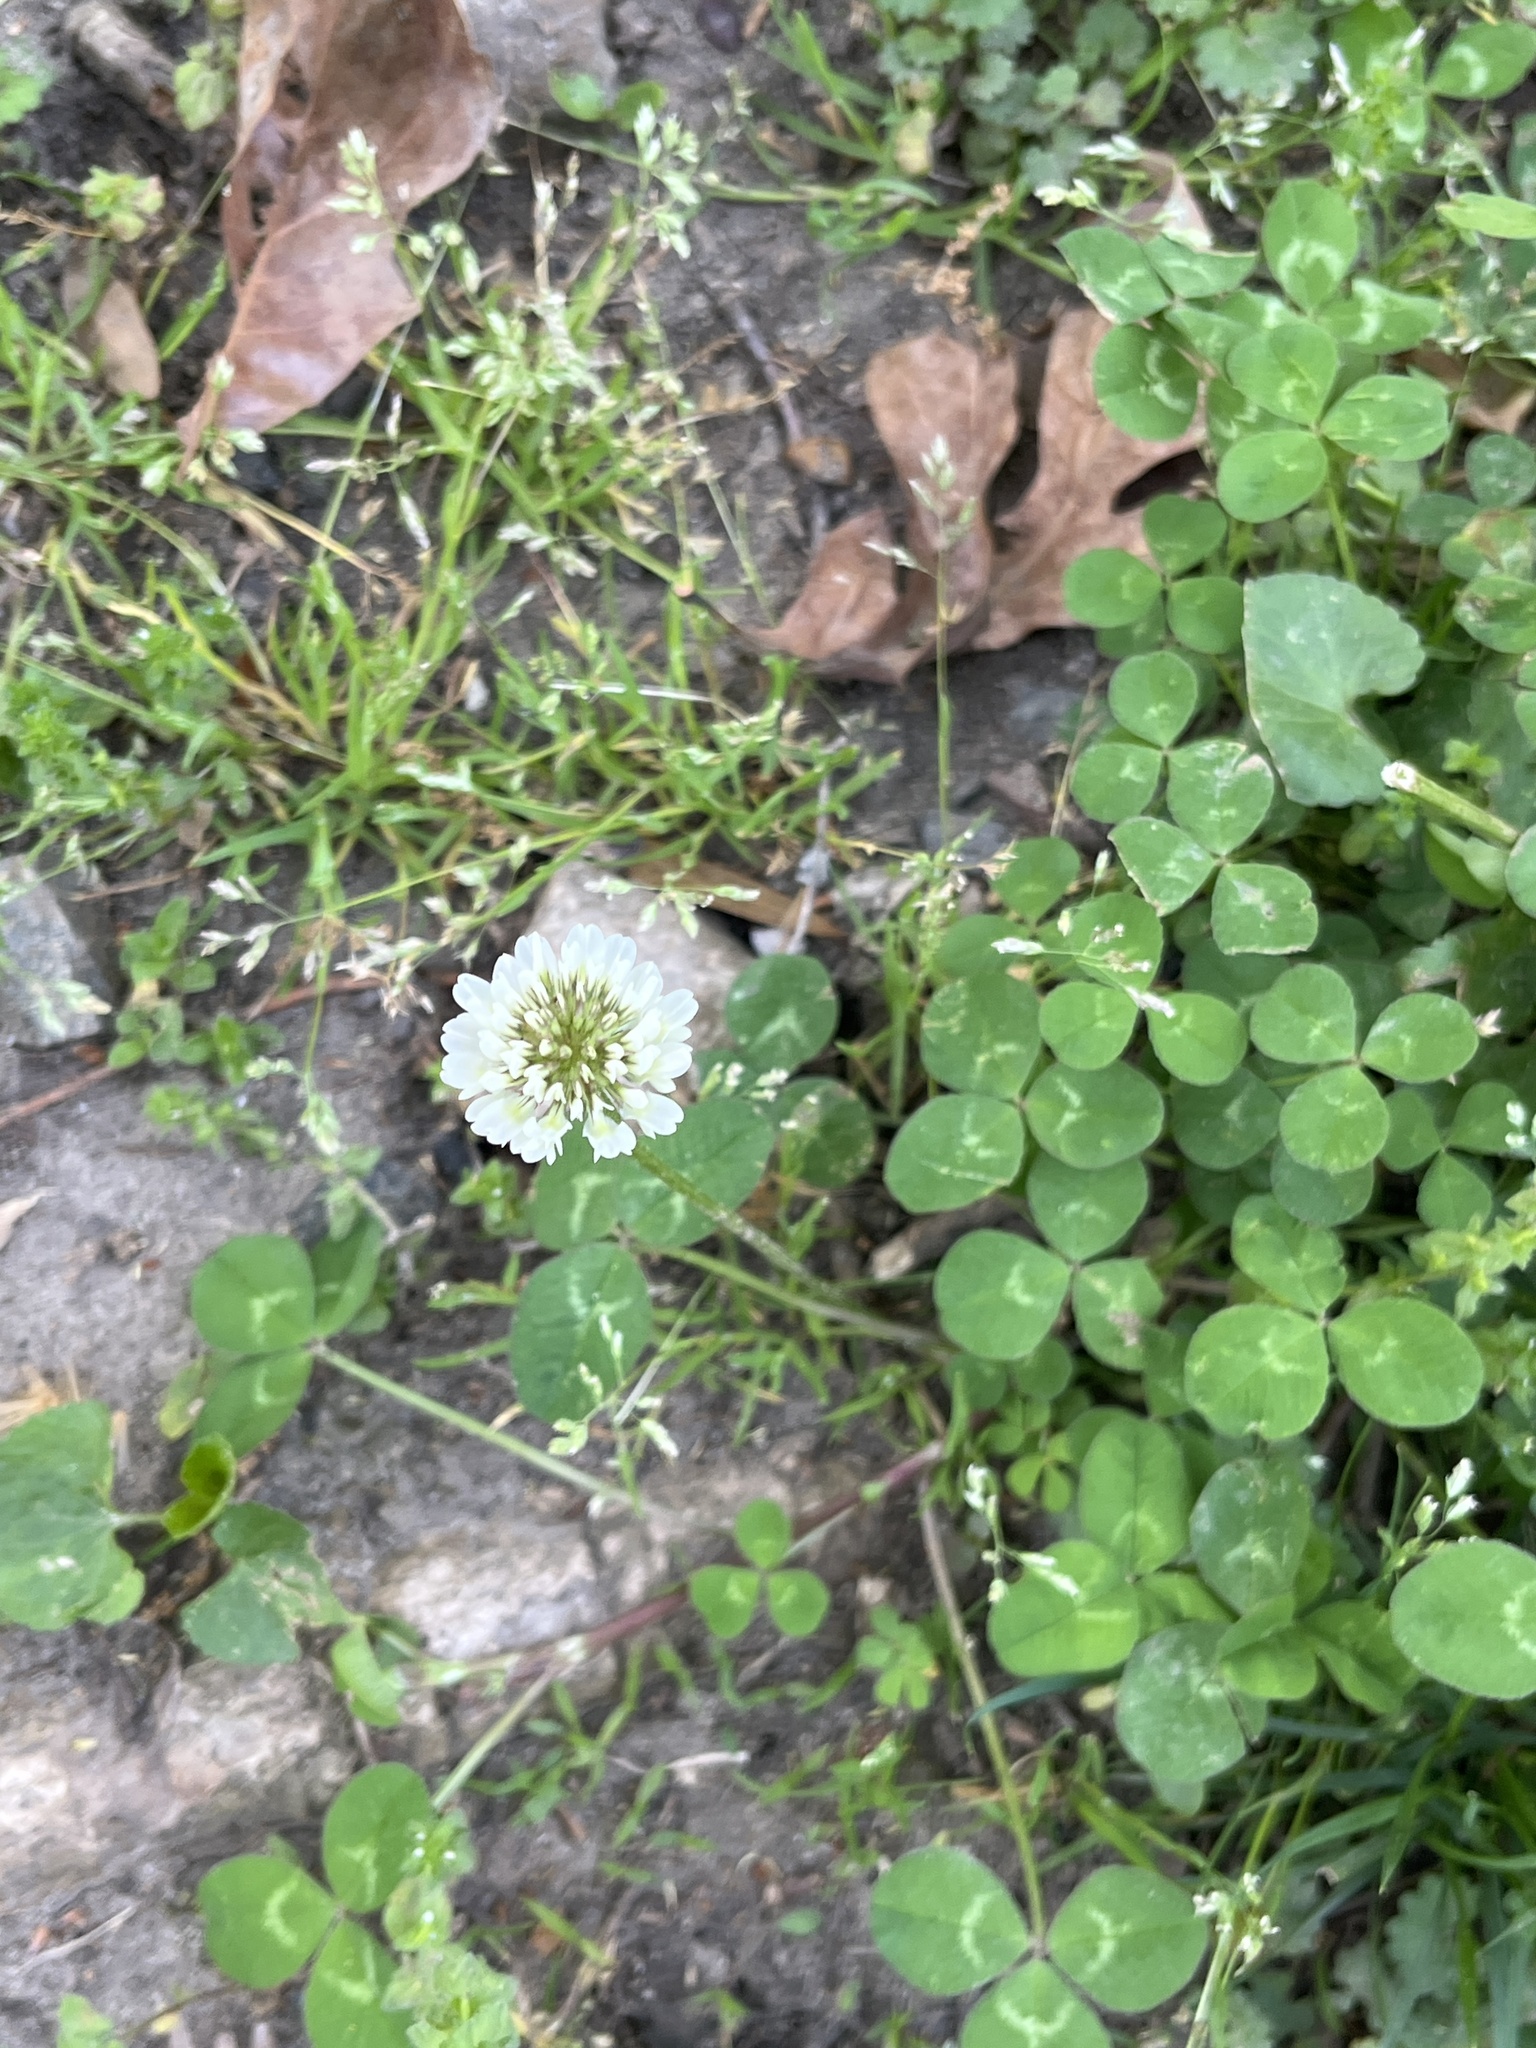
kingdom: Plantae
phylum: Tracheophyta
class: Magnoliopsida
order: Fabales
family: Fabaceae
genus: Trifolium
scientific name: Trifolium repens
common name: White clover
